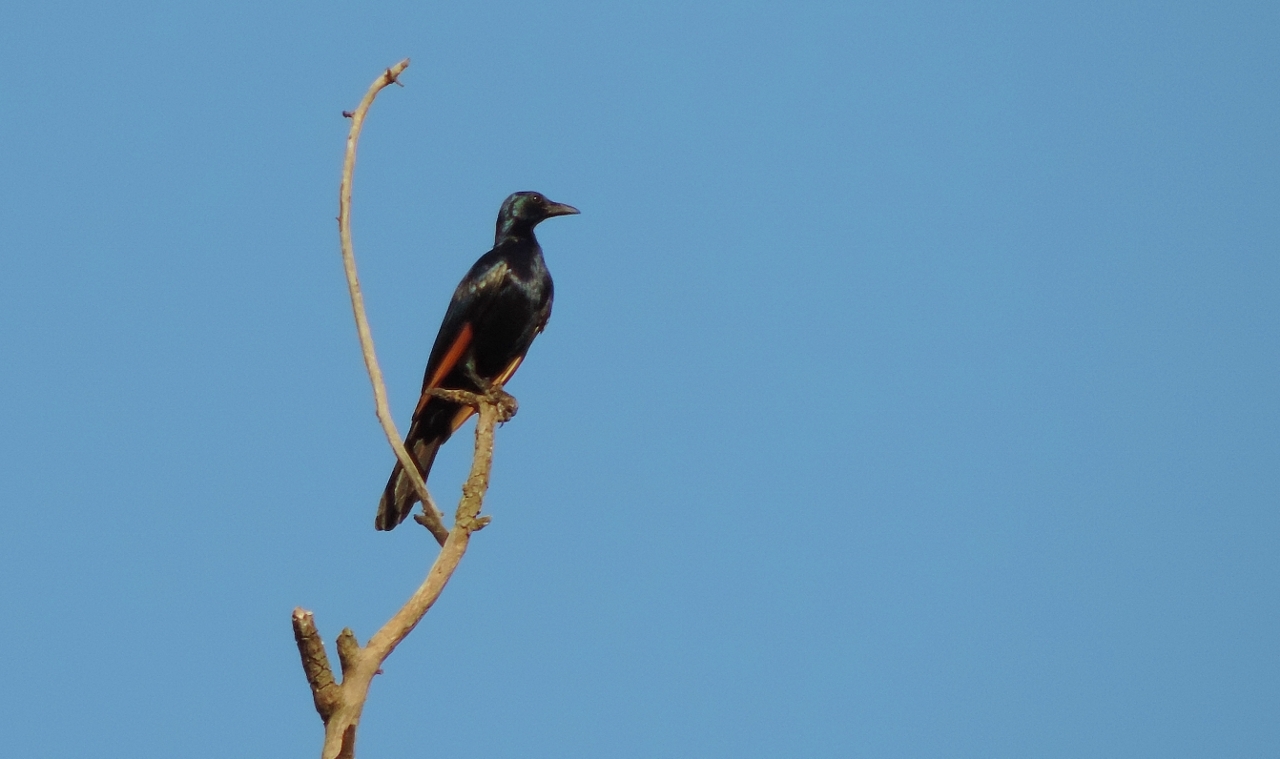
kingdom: Animalia
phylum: Chordata
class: Aves
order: Passeriformes
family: Sturnidae
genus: Onychognathus
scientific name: Onychognathus morio
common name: Red-winged starling
